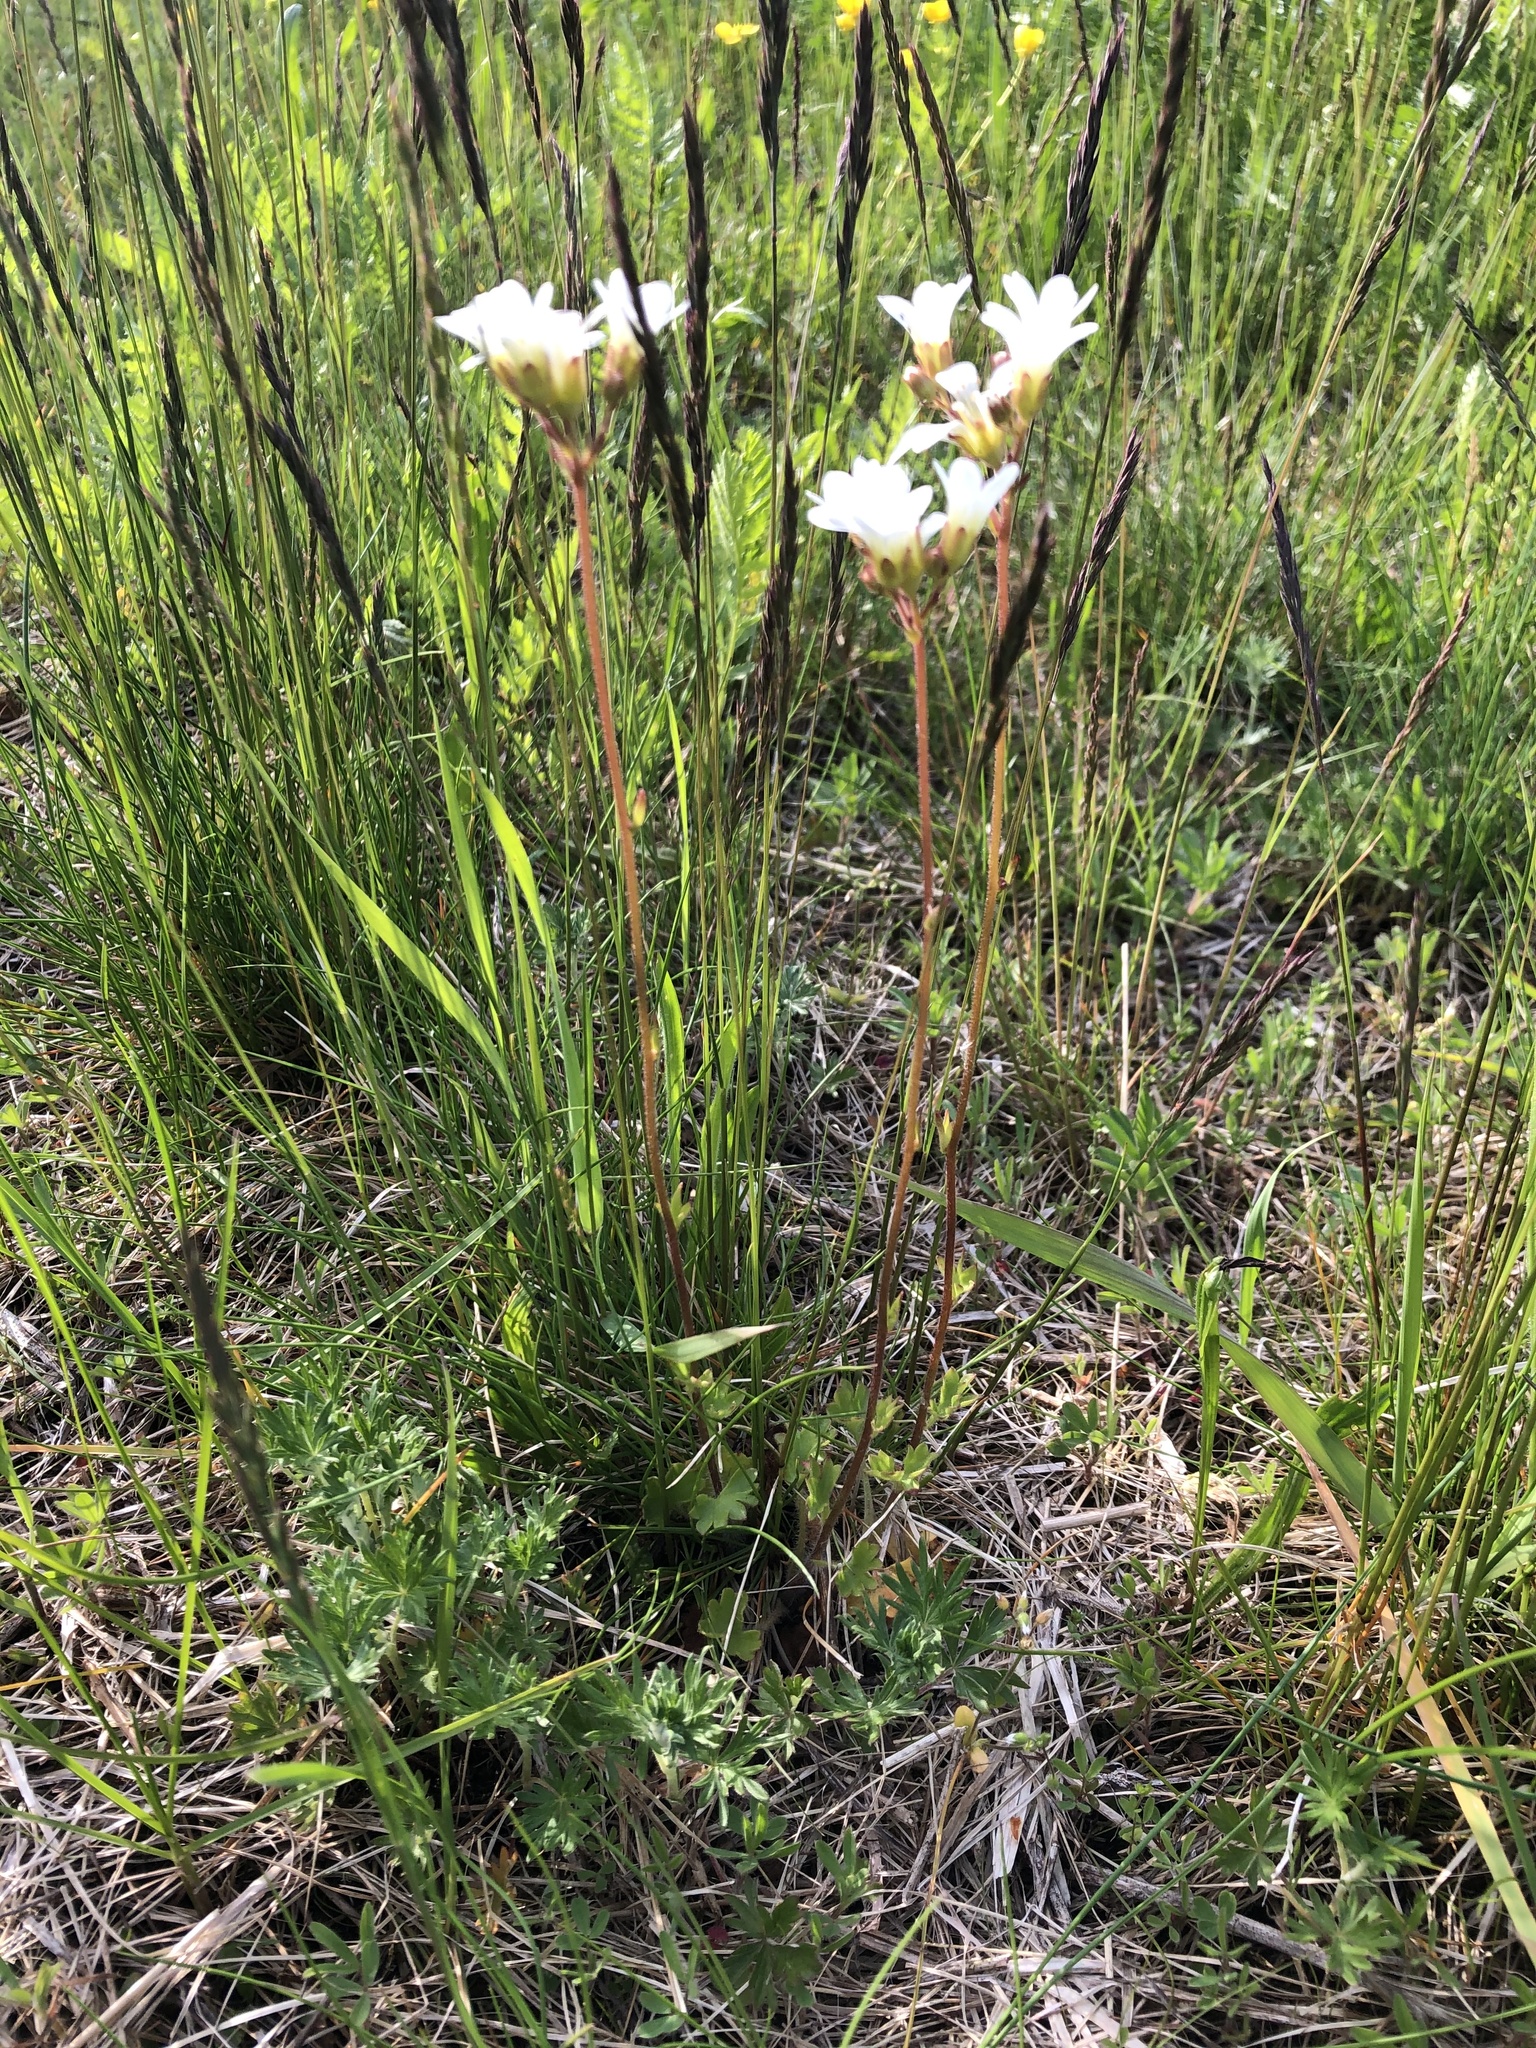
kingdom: Plantae
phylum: Tracheophyta
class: Magnoliopsida
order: Saxifragales
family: Saxifragaceae
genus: Saxifraga
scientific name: Saxifraga granulata
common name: Meadow saxifrage
